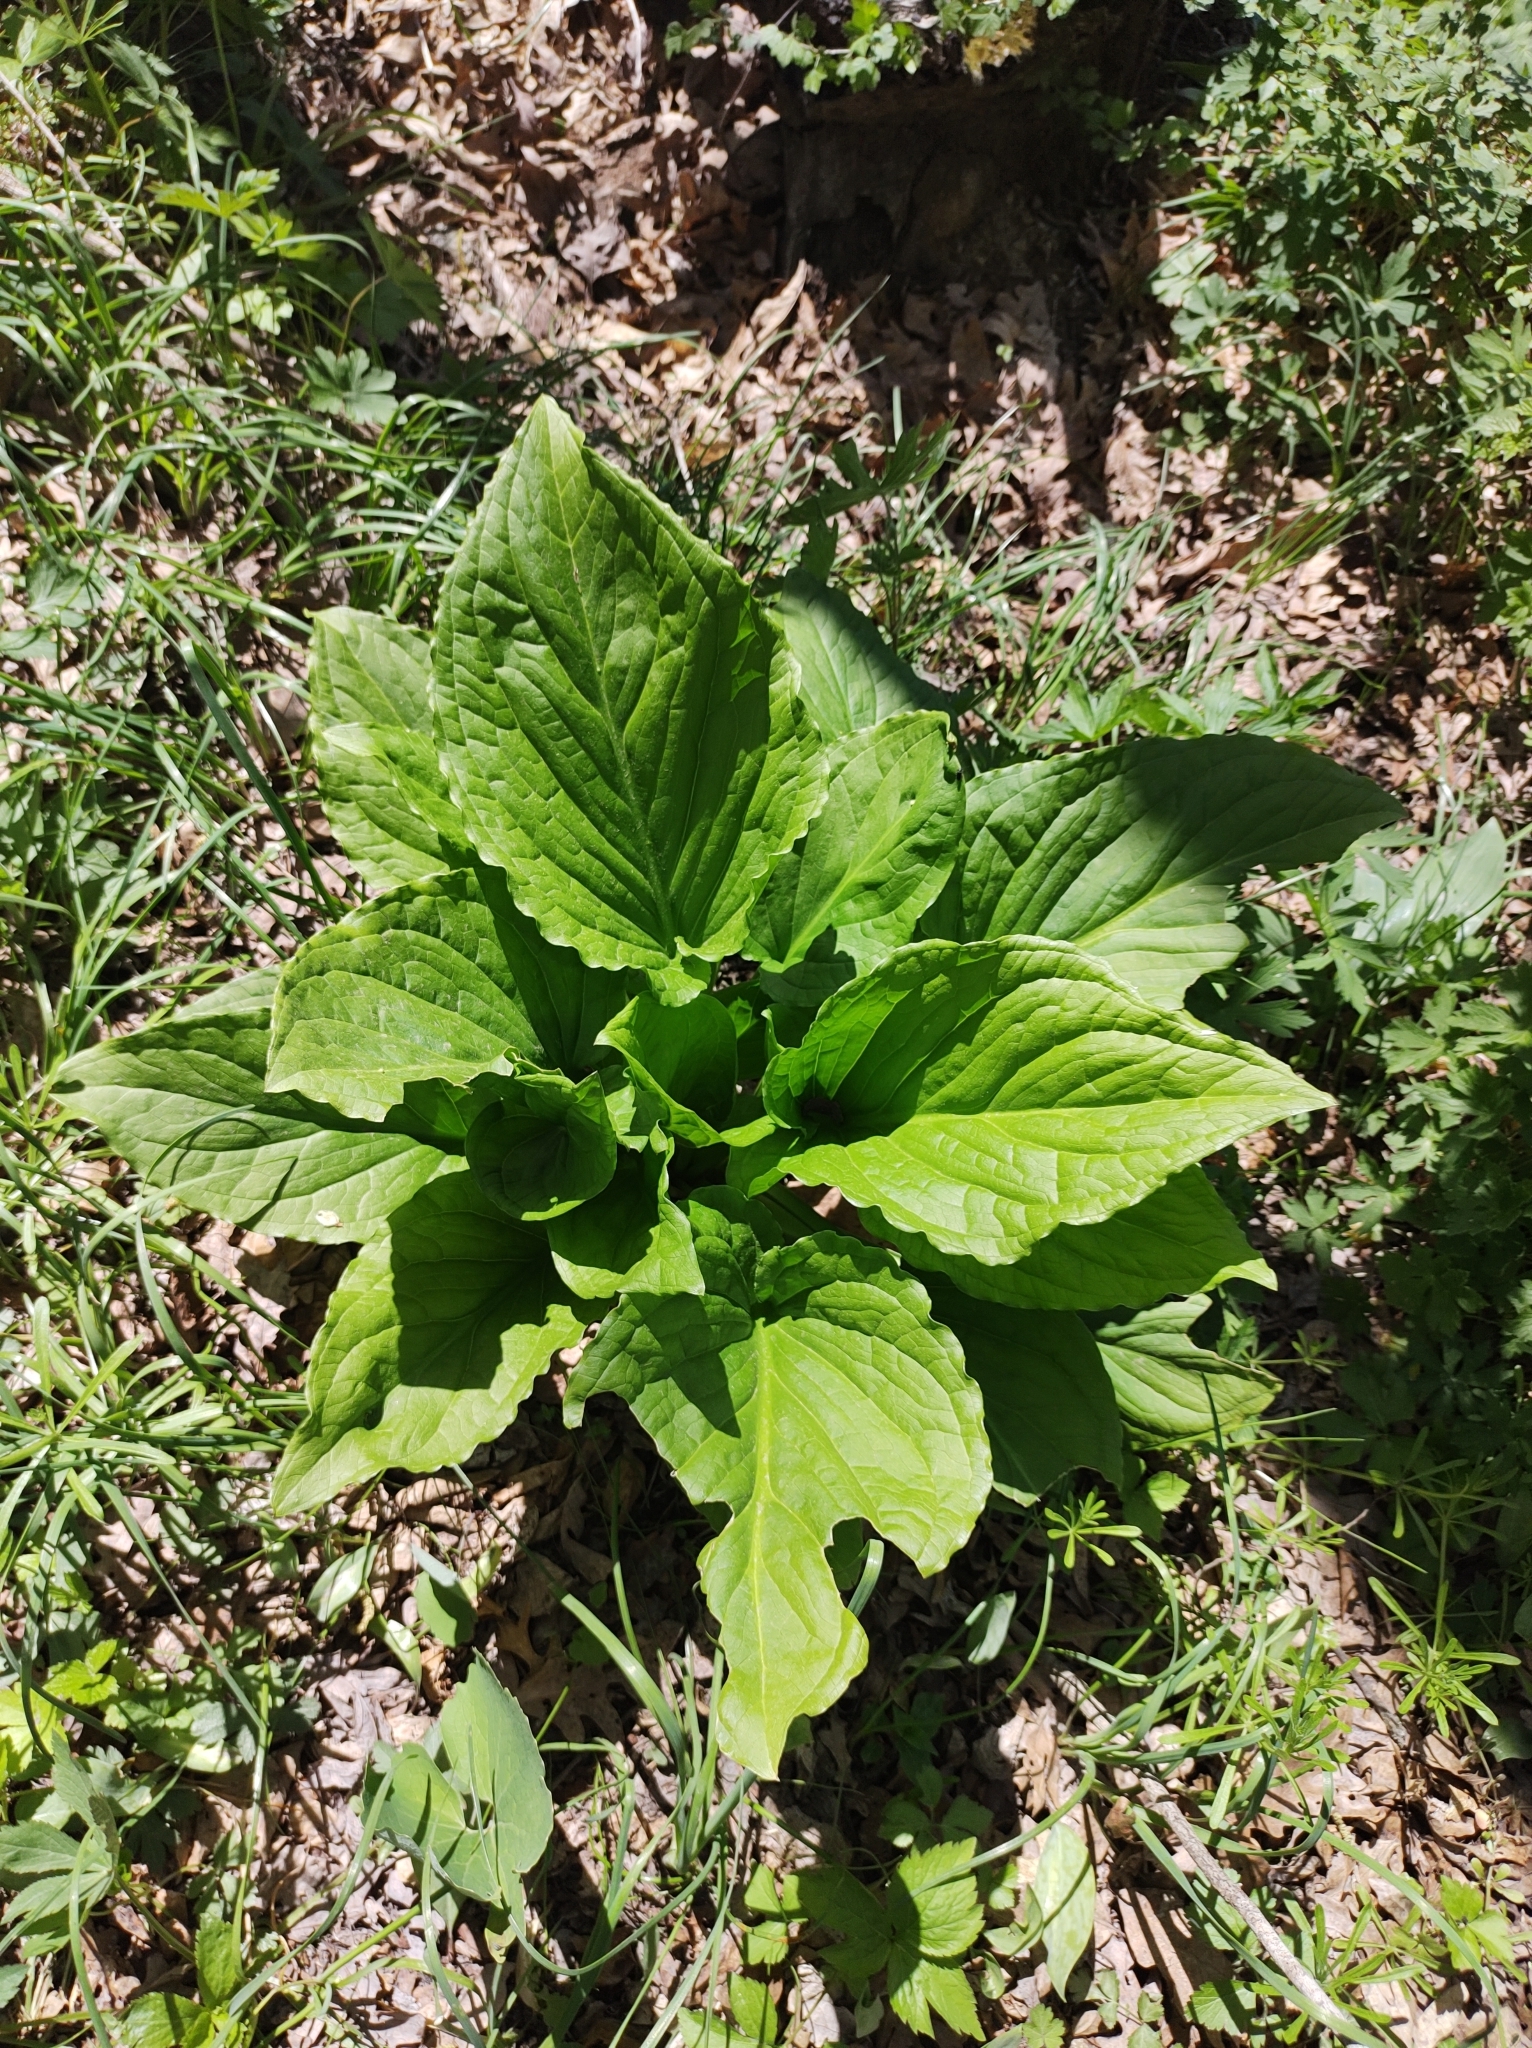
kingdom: Plantae
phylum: Tracheophyta
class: Liliopsida
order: Alismatales
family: Araceae
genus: Symplocarpus
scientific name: Symplocarpus foetidus
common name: Eastern skunk cabbage
